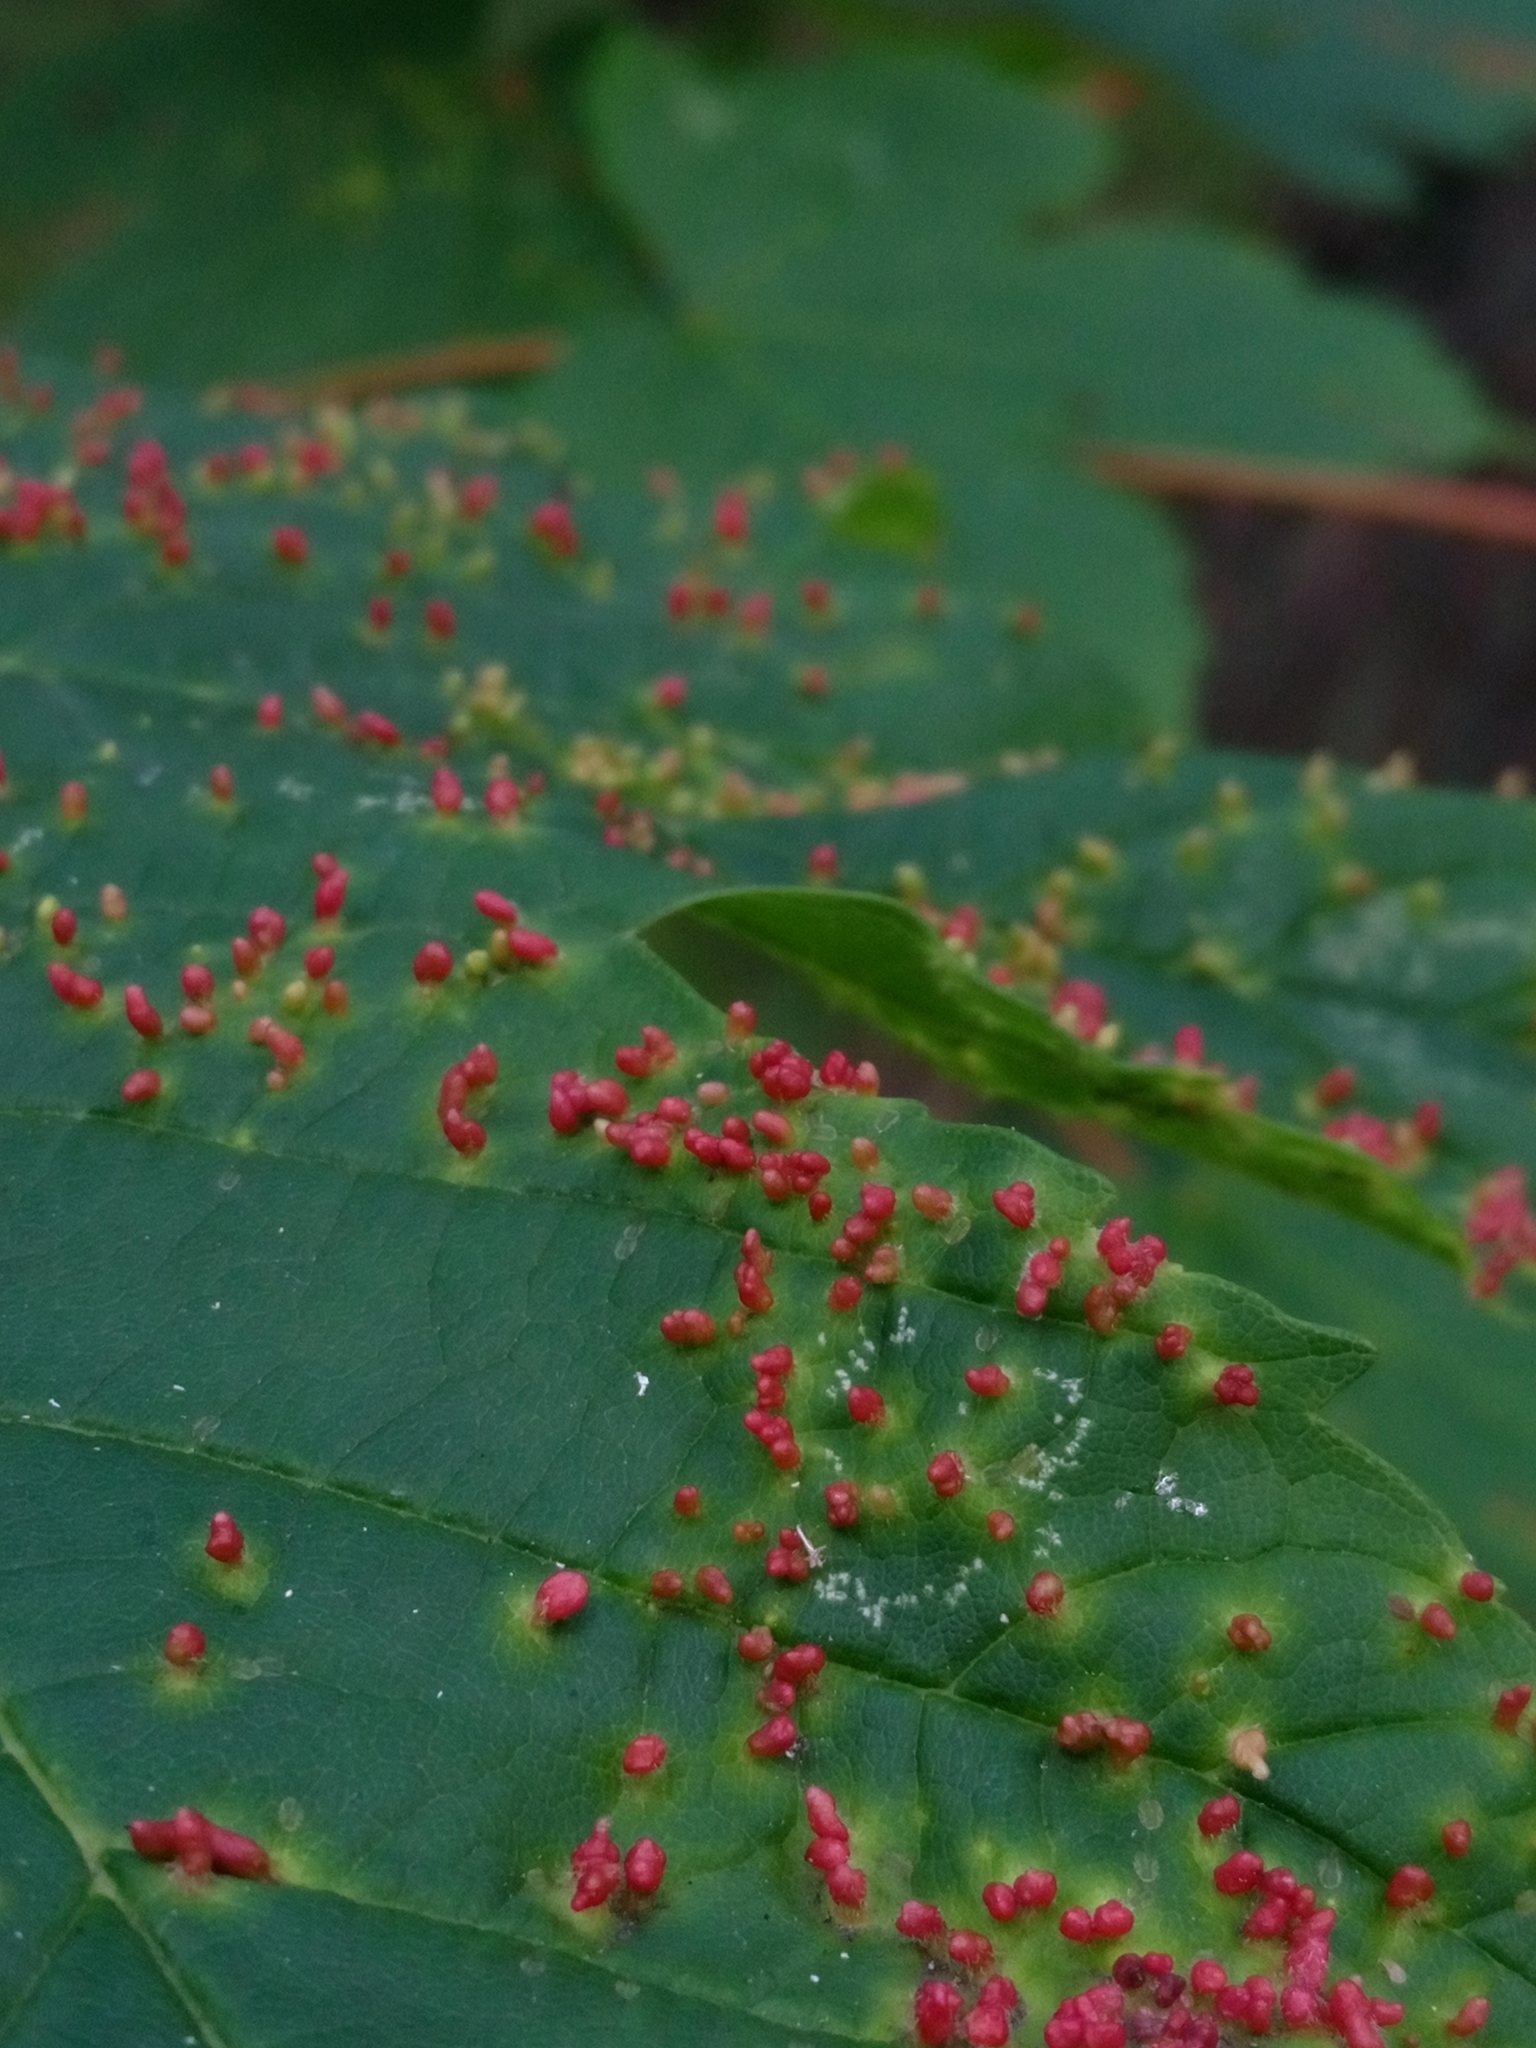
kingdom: Animalia
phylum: Arthropoda
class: Arachnida
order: Trombidiformes
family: Eriophyidae
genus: Aceria
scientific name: Aceria cephaloneus
